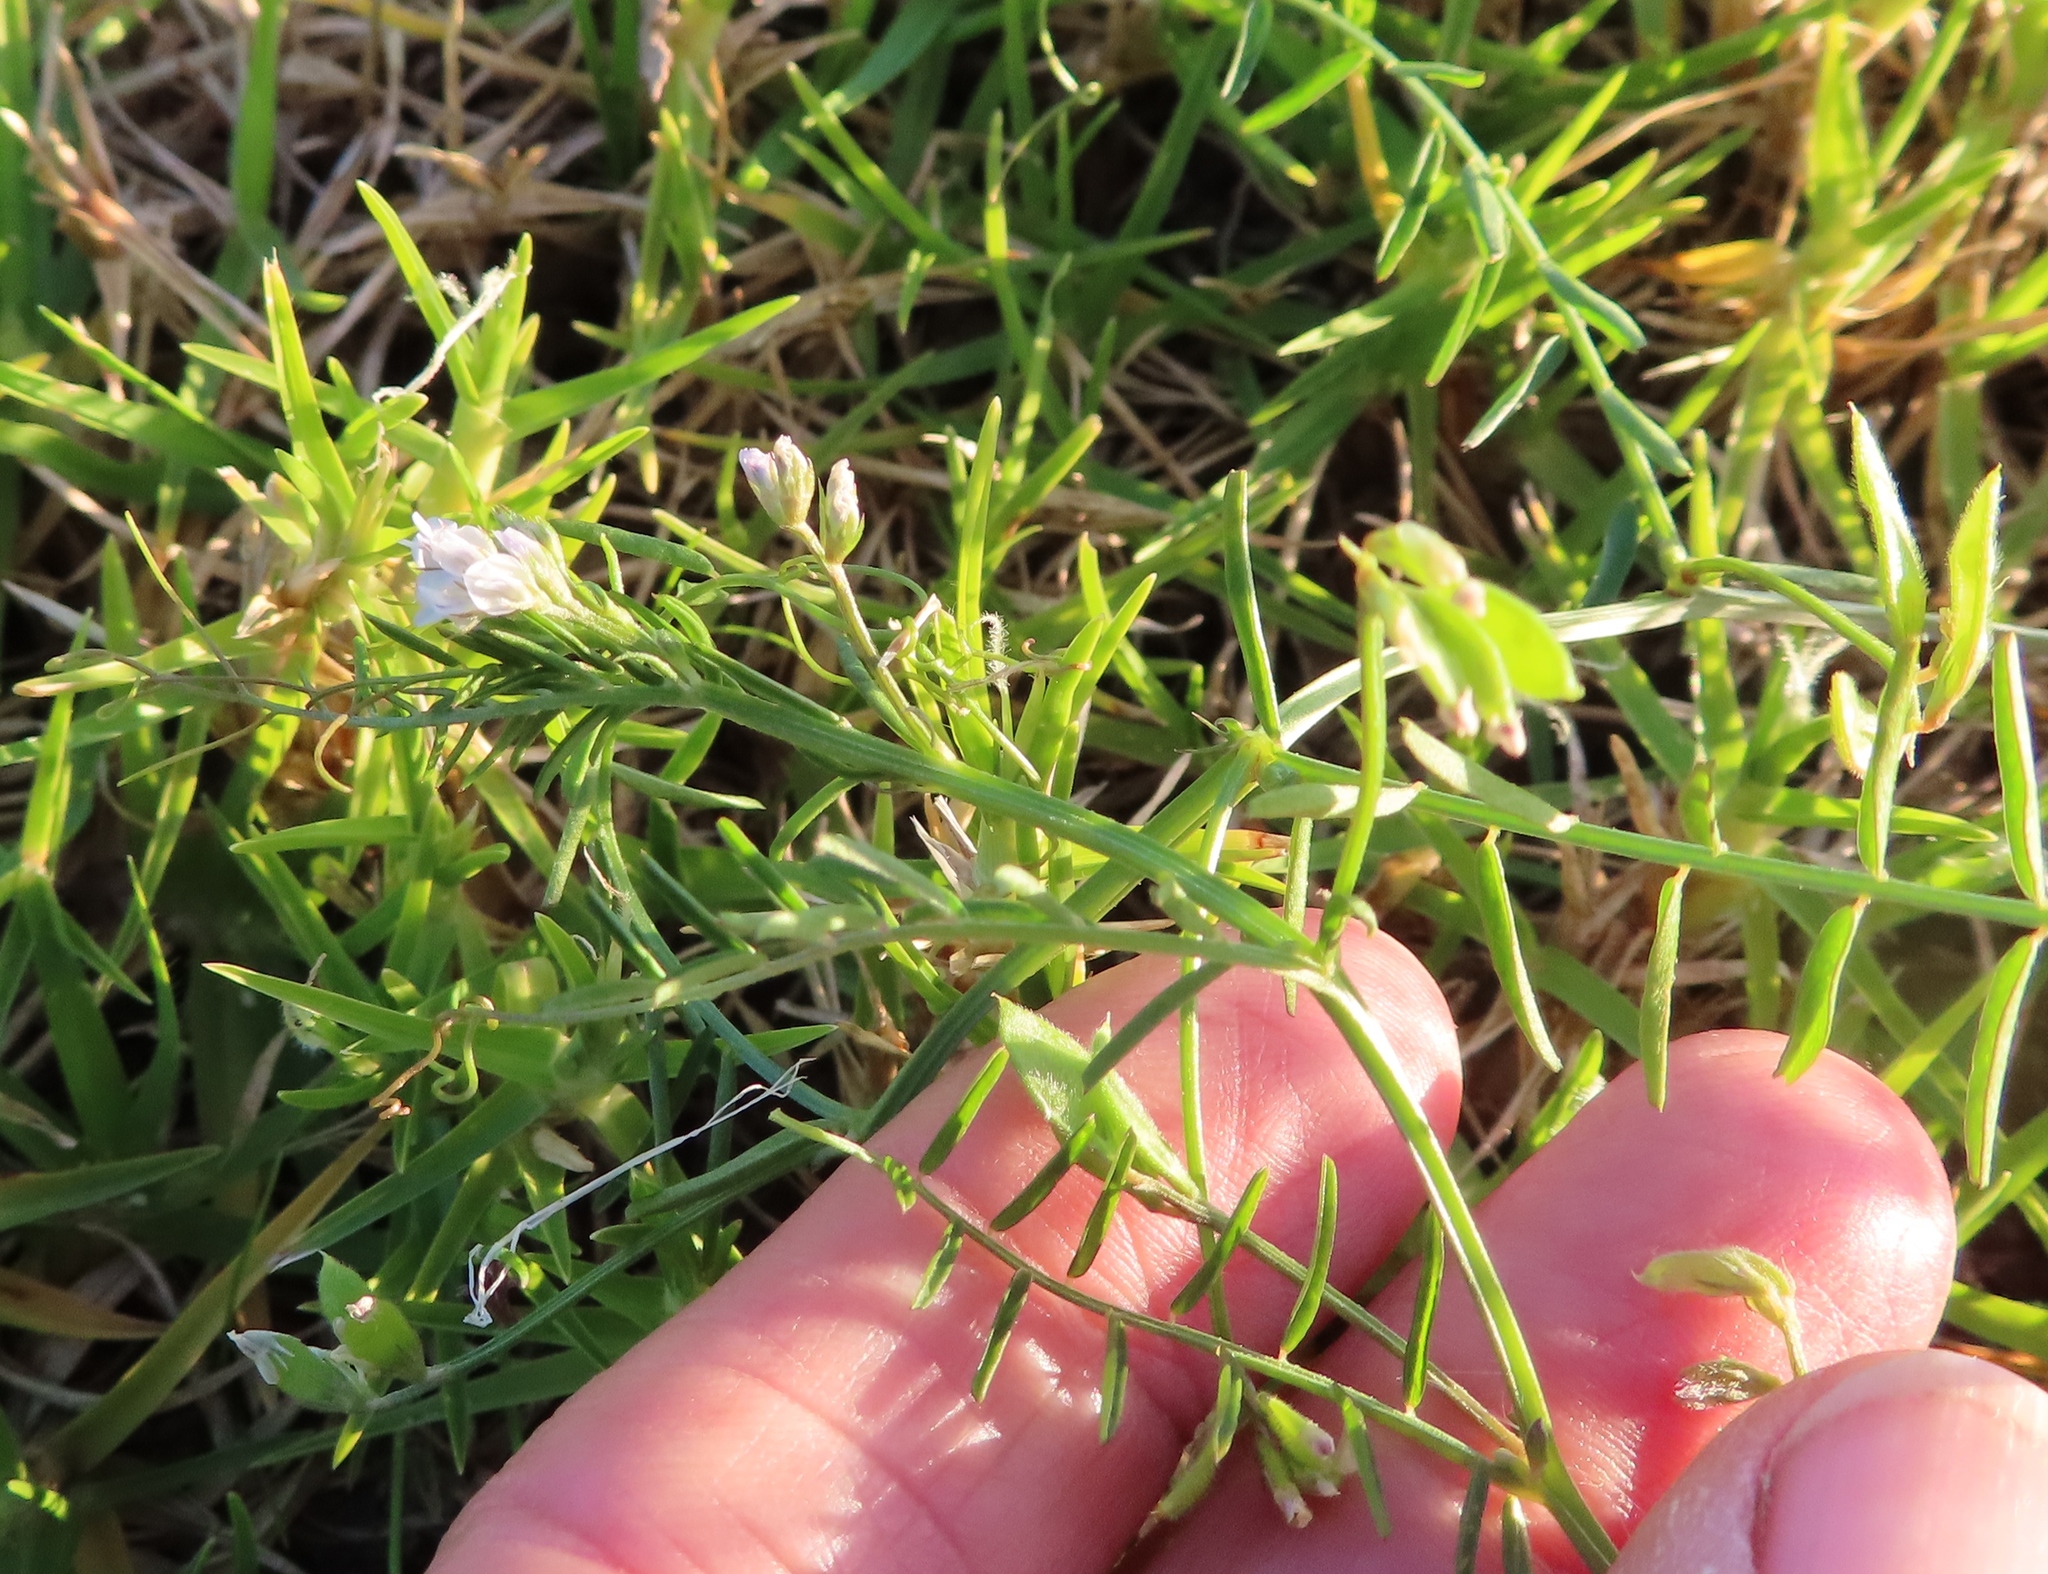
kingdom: Plantae
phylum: Tracheophyta
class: Magnoliopsida
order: Fabales
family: Fabaceae
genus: Vicia
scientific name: Vicia hirsuta
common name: Tiny vetch
